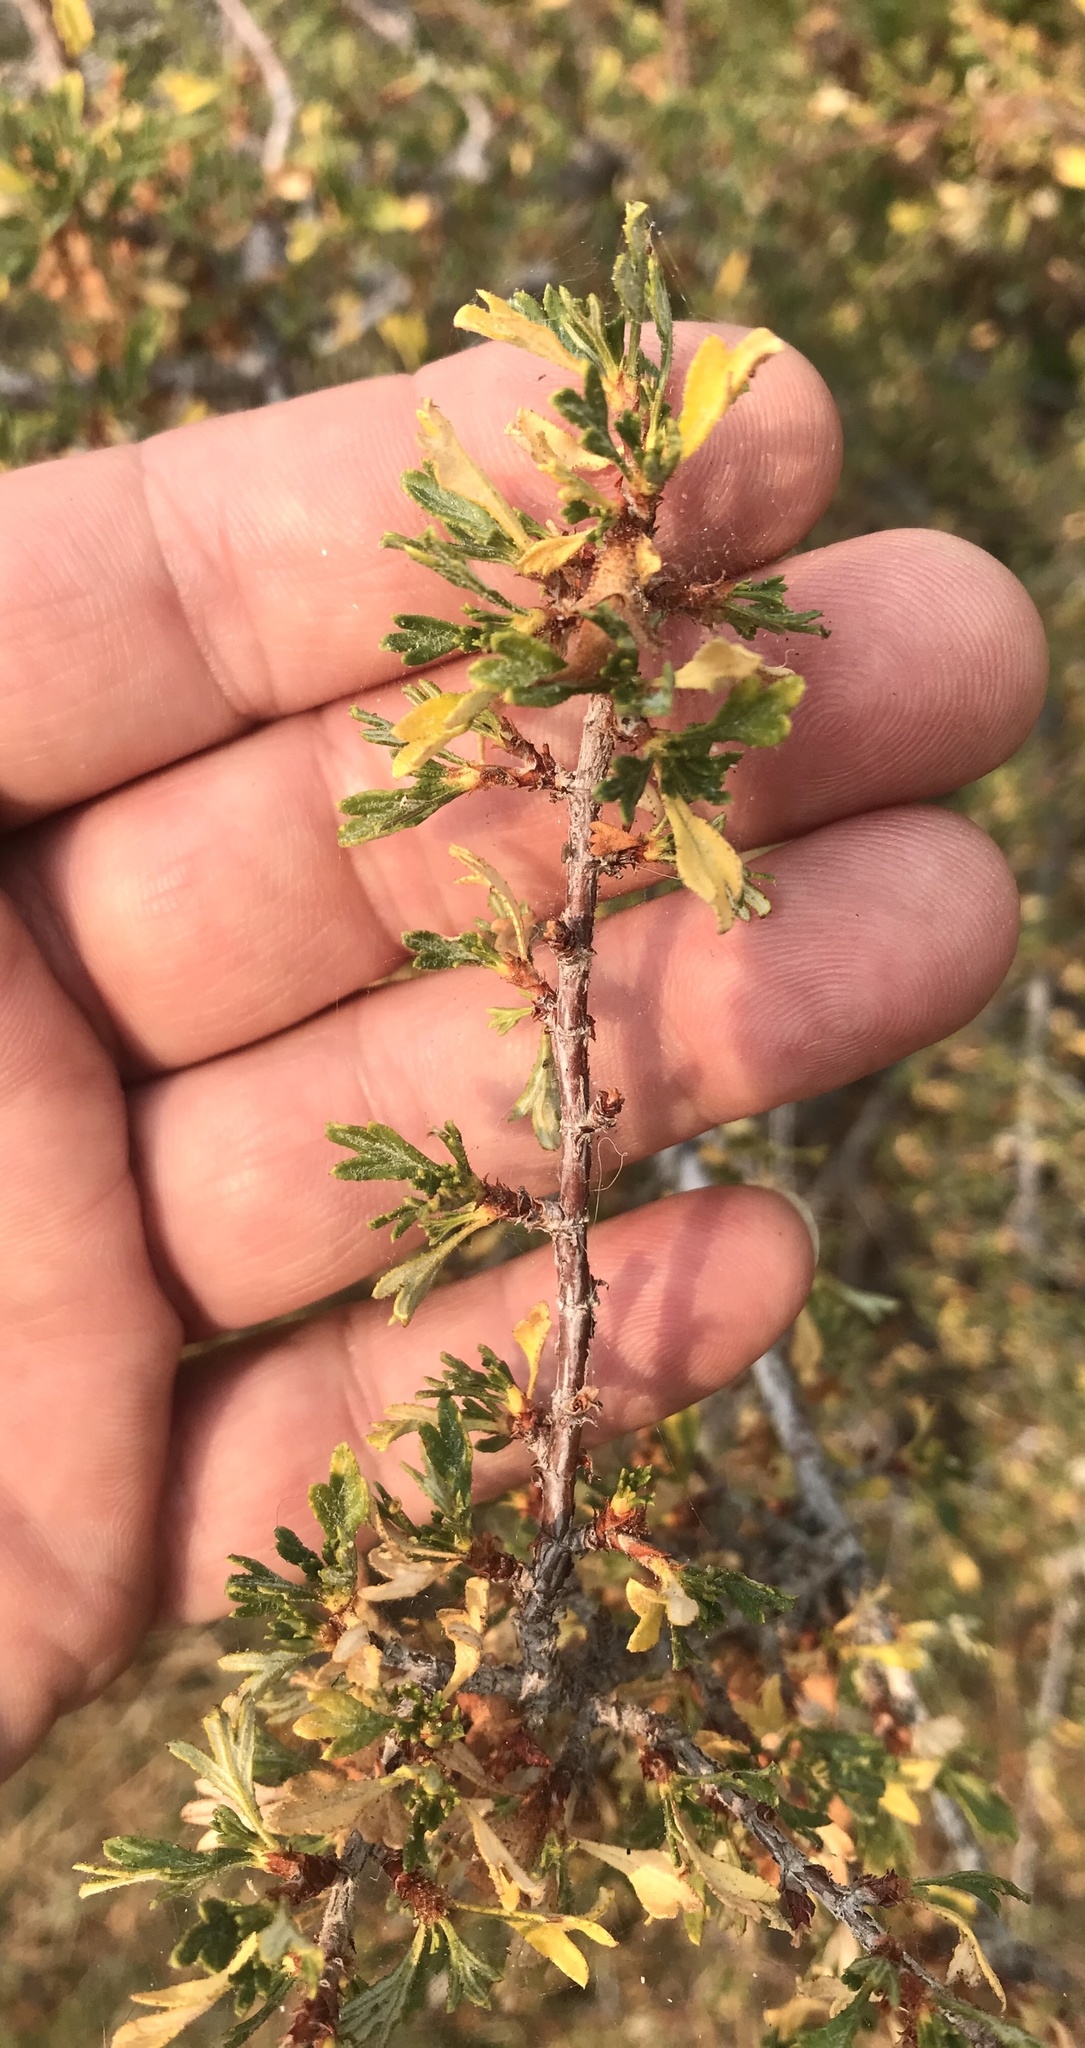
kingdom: Plantae
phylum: Tracheophyta
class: Magnoliopsida
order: Rosales
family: Rosaceae
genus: Purshia
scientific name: Purshia tridentata
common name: Antelope bitterbrush
